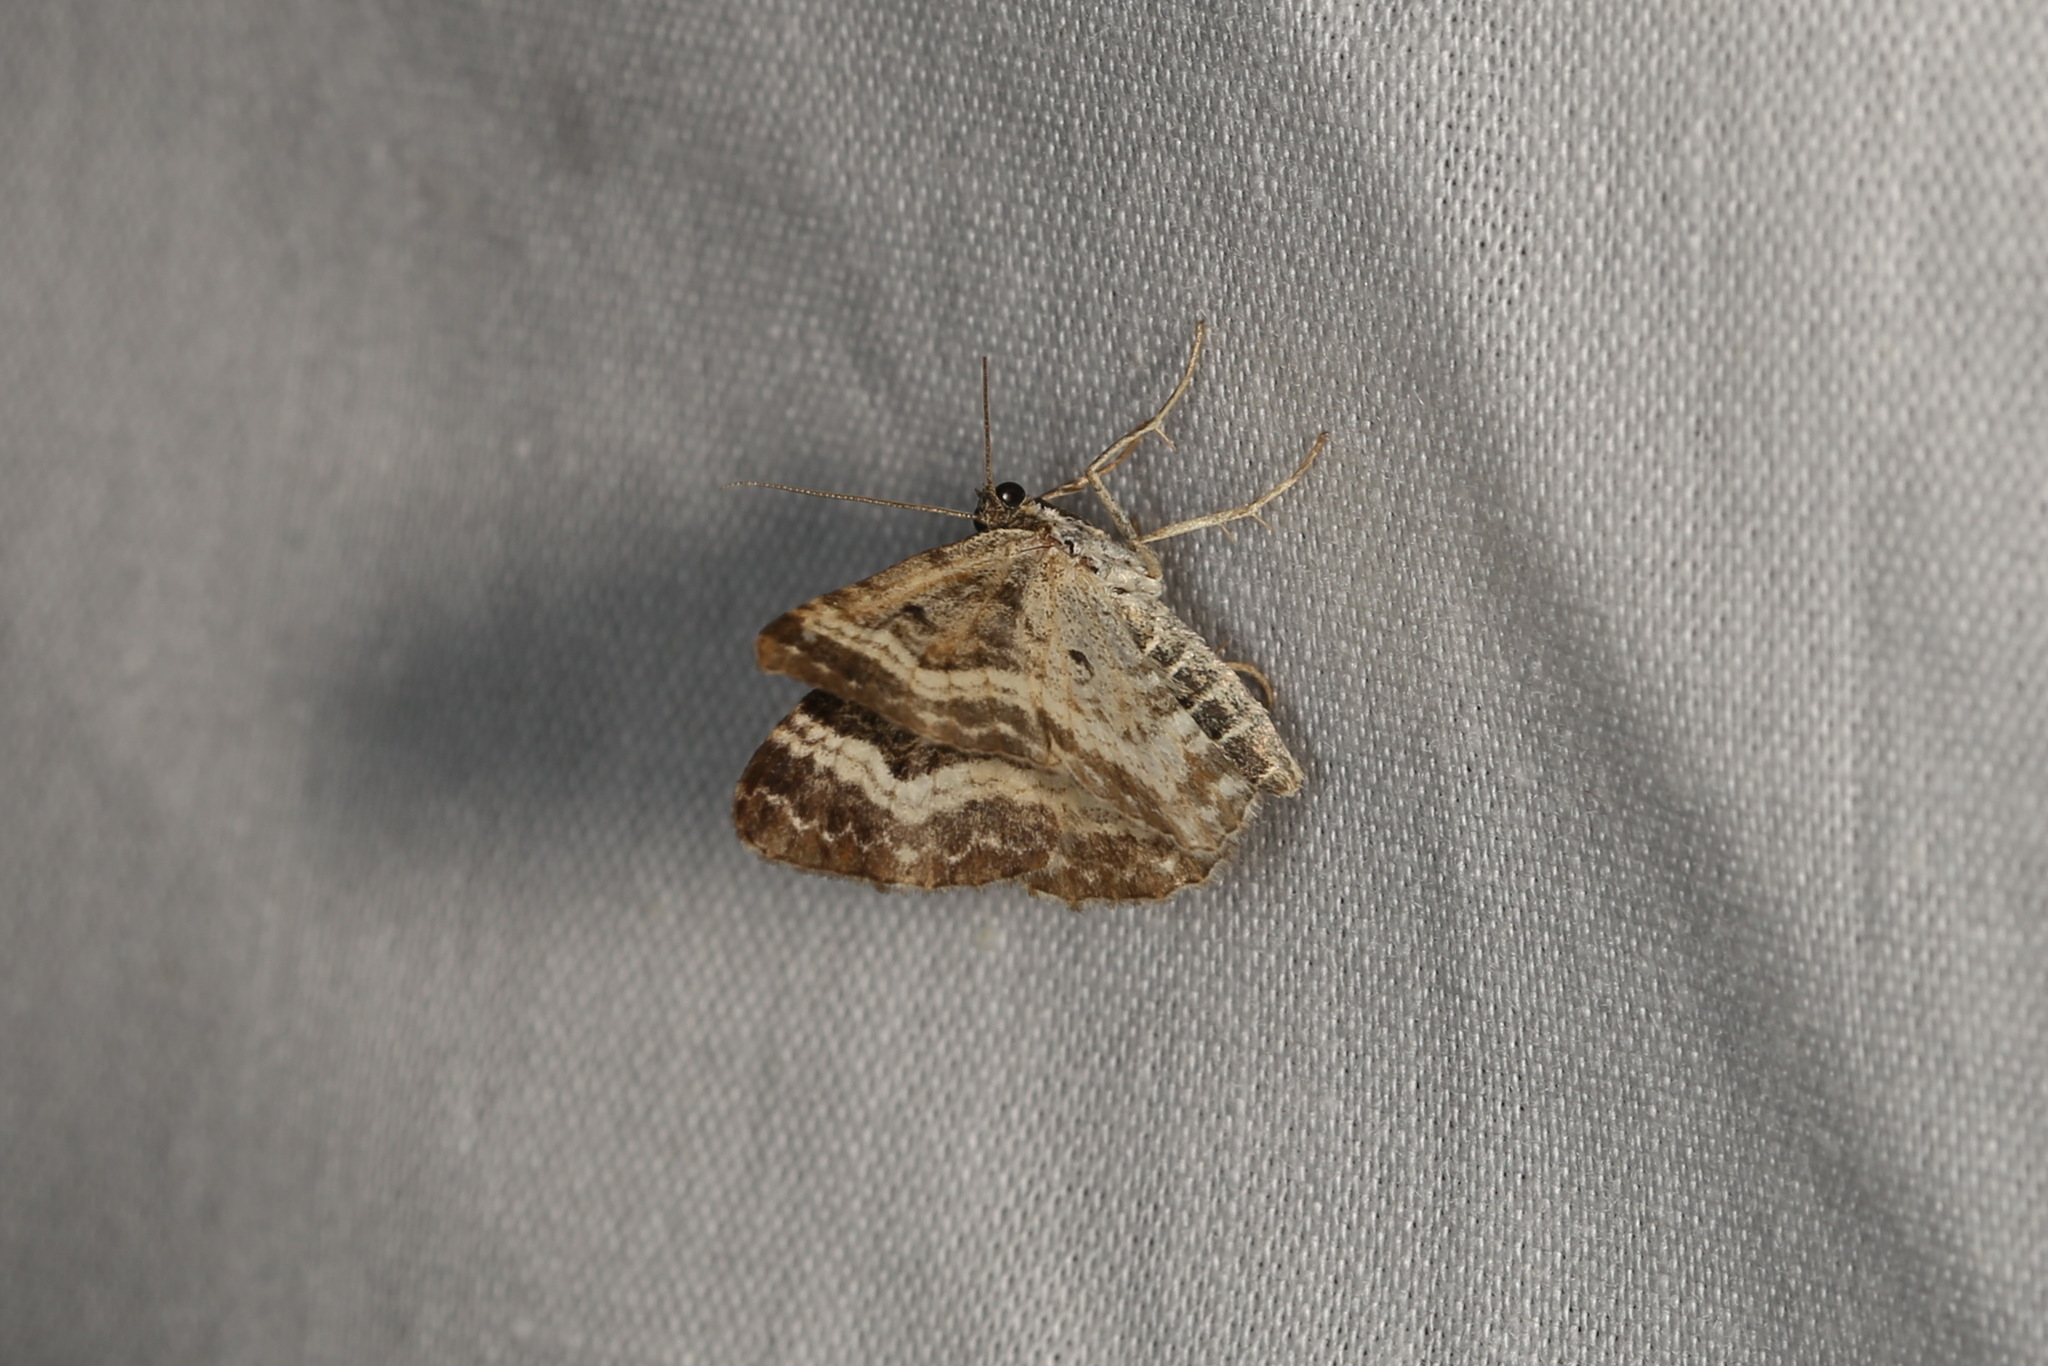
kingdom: Animalia
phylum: Arthropoda
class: Insecta
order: Lepidoptera
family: Geometridae
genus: Epirrhoe
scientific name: Epirrhoe alternata
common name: Common carpet
